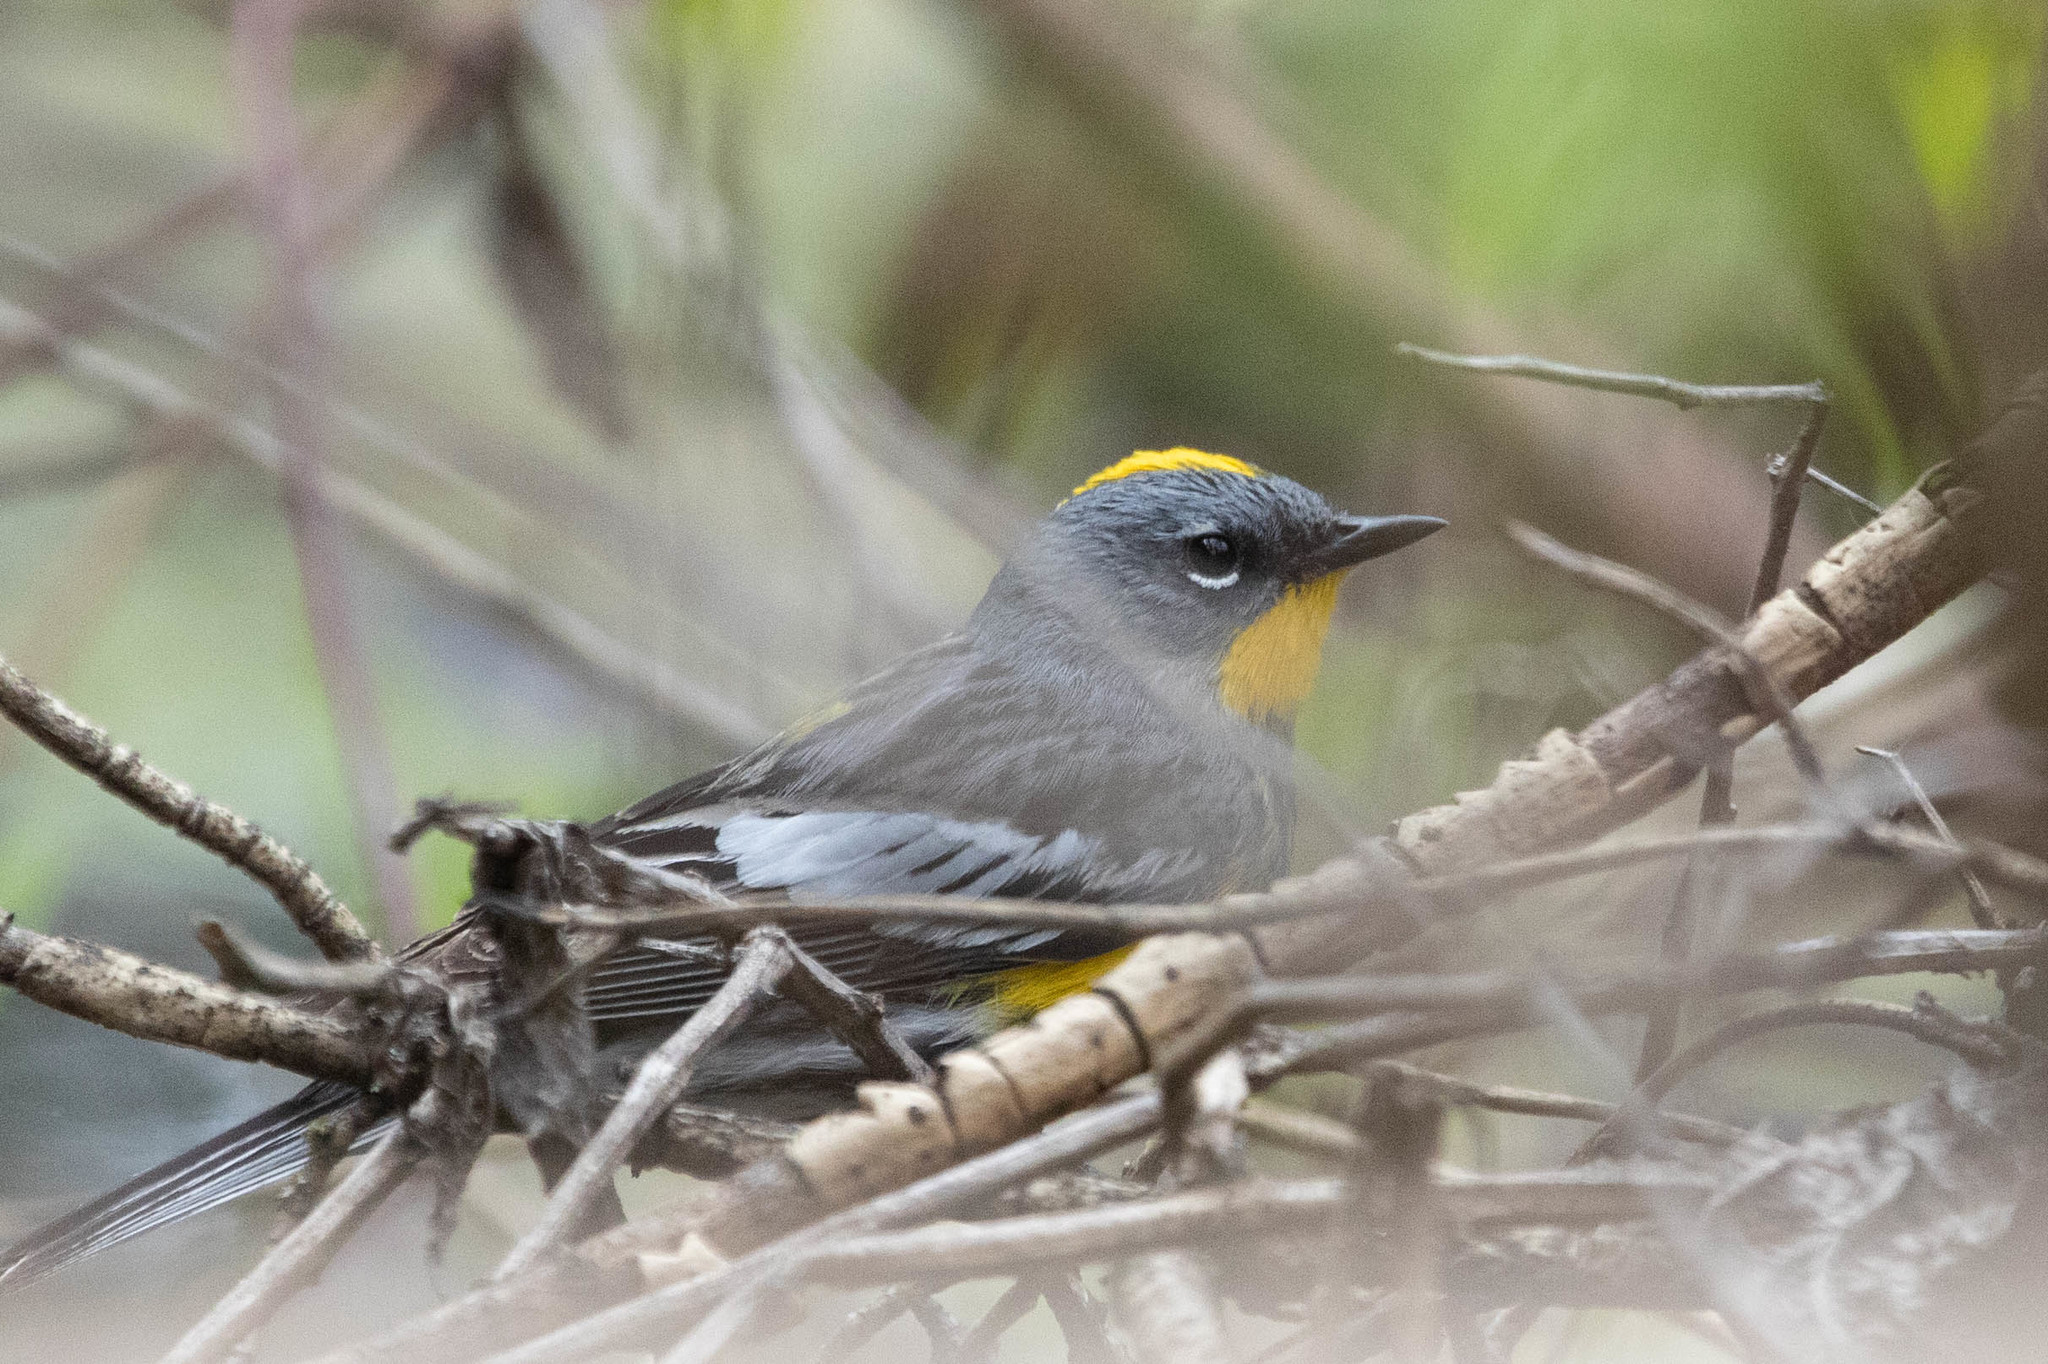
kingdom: Animalia
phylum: Chordata
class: Aves
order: Passeriformes
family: Parulidae
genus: Setophaga
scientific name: Setophaga auduboni
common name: Audubon's warbler
